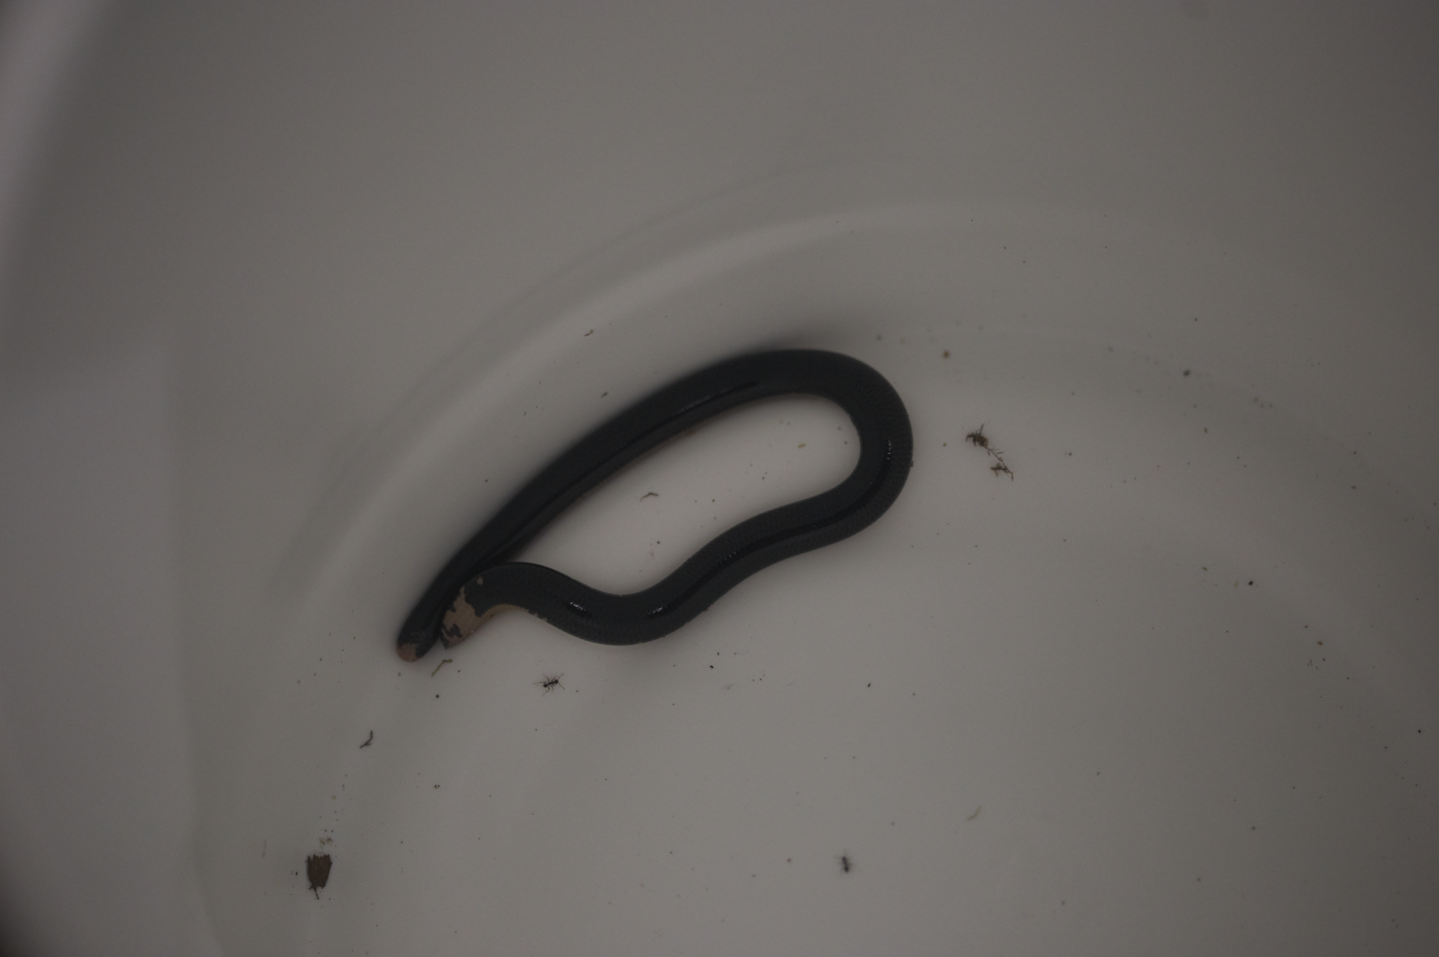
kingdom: Animalia
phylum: Chordata
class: Squamata
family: Typhlopidae
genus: Amerotyphlops
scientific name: Amerotyphlops reticulatus
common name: Reticulate worm snake
